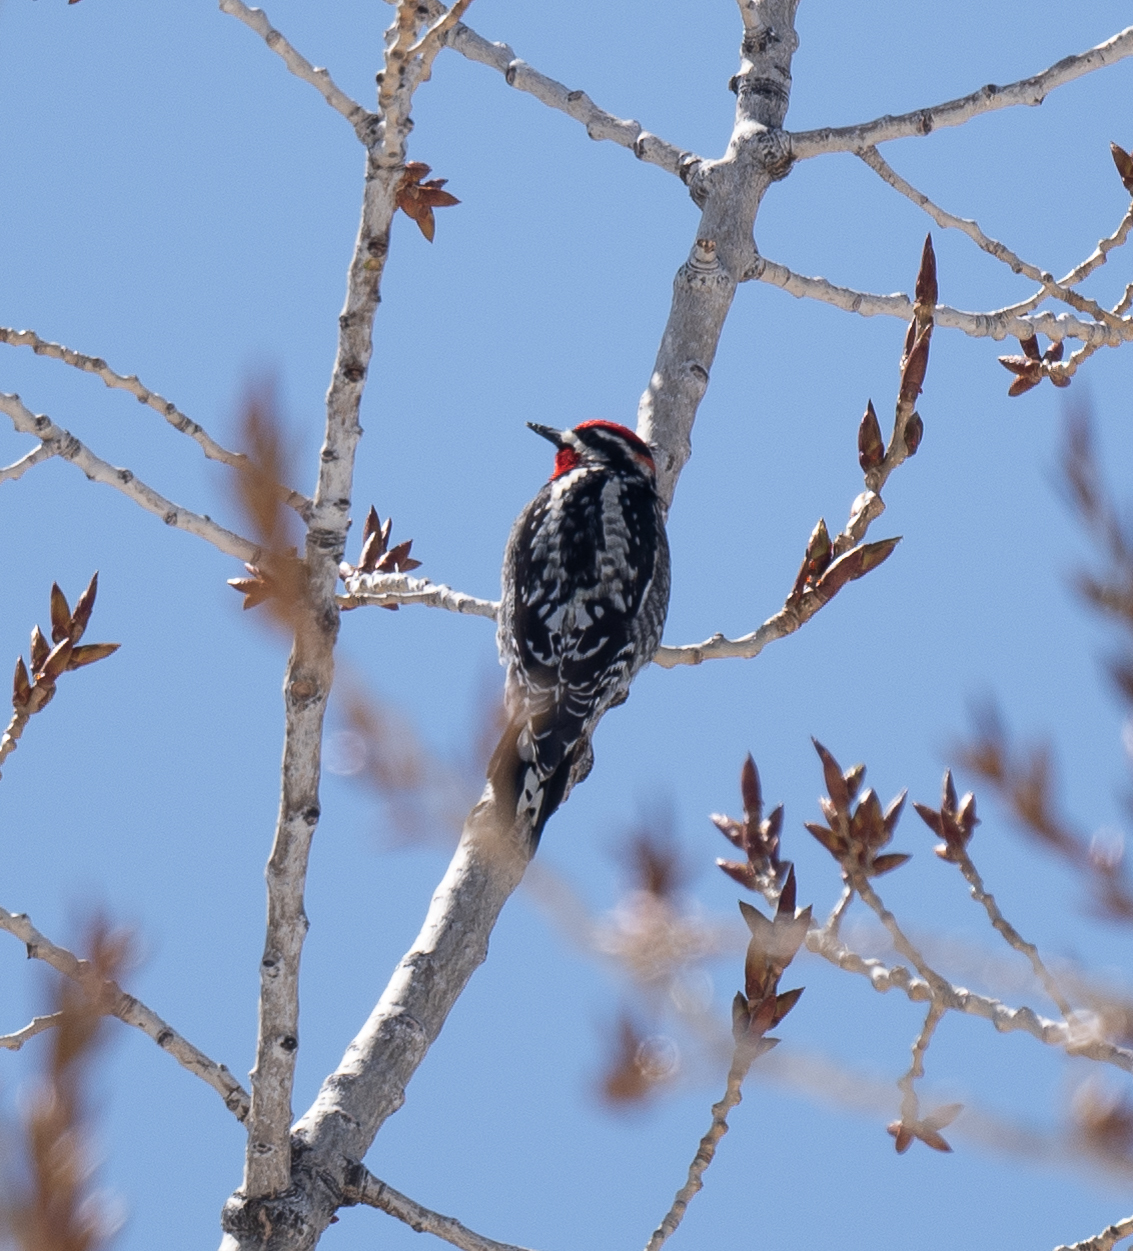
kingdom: Animalia
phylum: Chordata
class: Aves
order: Piciformes
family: Picidae
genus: Sphyrapicus
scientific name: Sphyrapicus nuchalis
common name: Red-naped sapsucker
